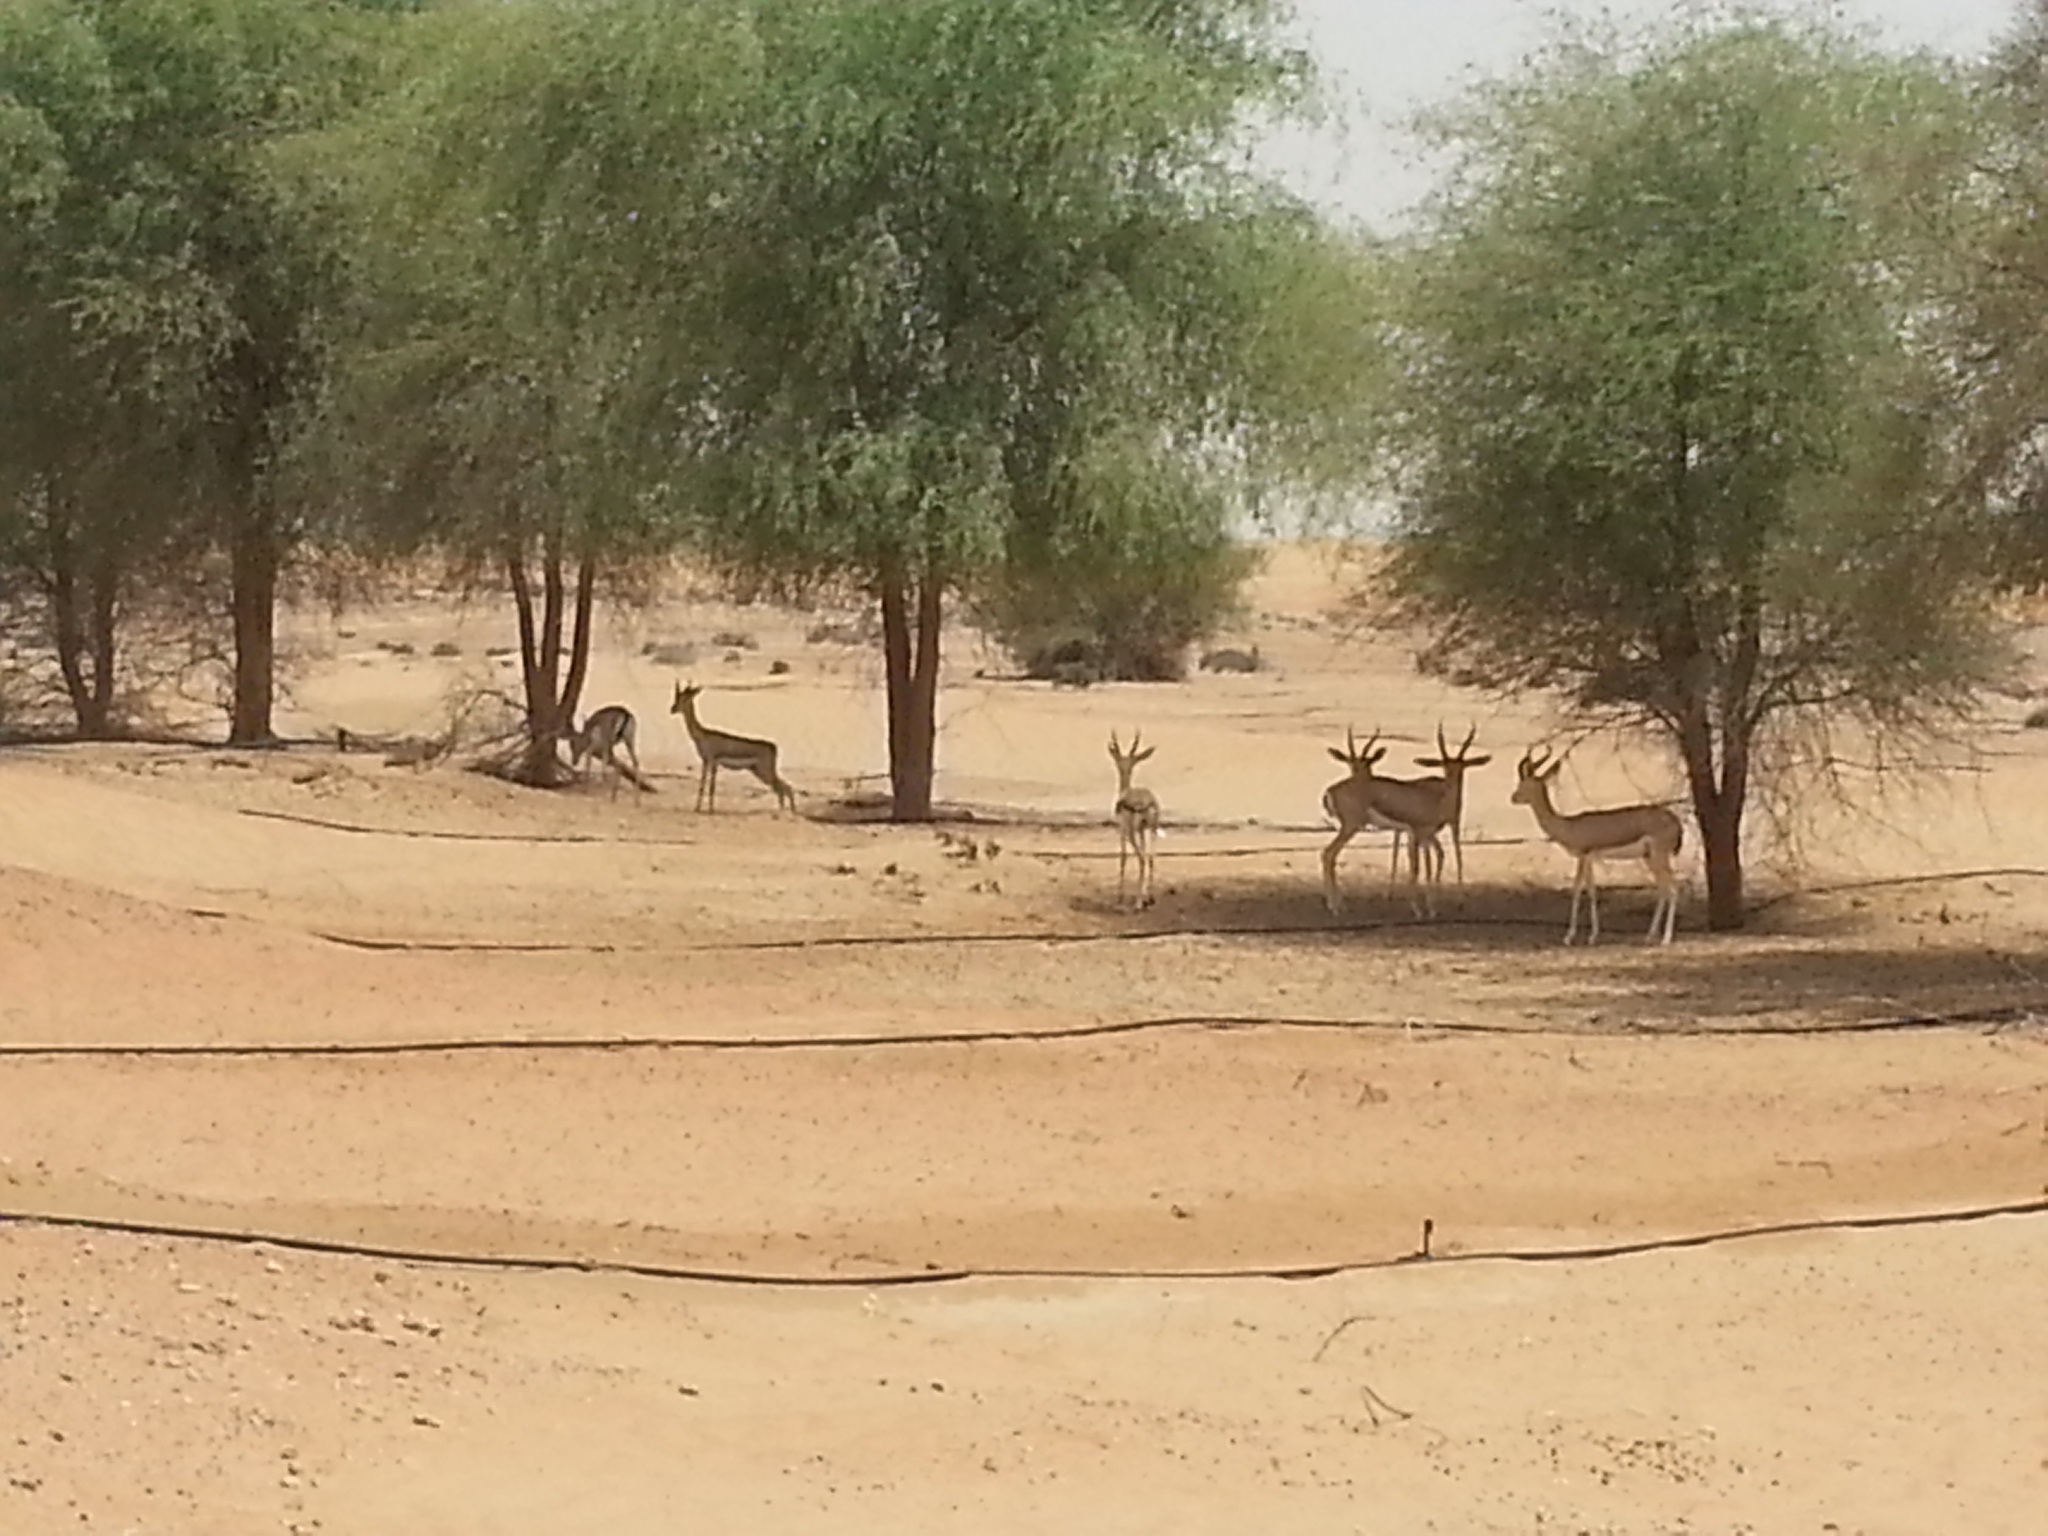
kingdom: Animalia
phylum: Chordata
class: Mammalia
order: Artiodactyla
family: Bovidae
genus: Gazella
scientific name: Gazella arabica
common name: Arabian gazelle
